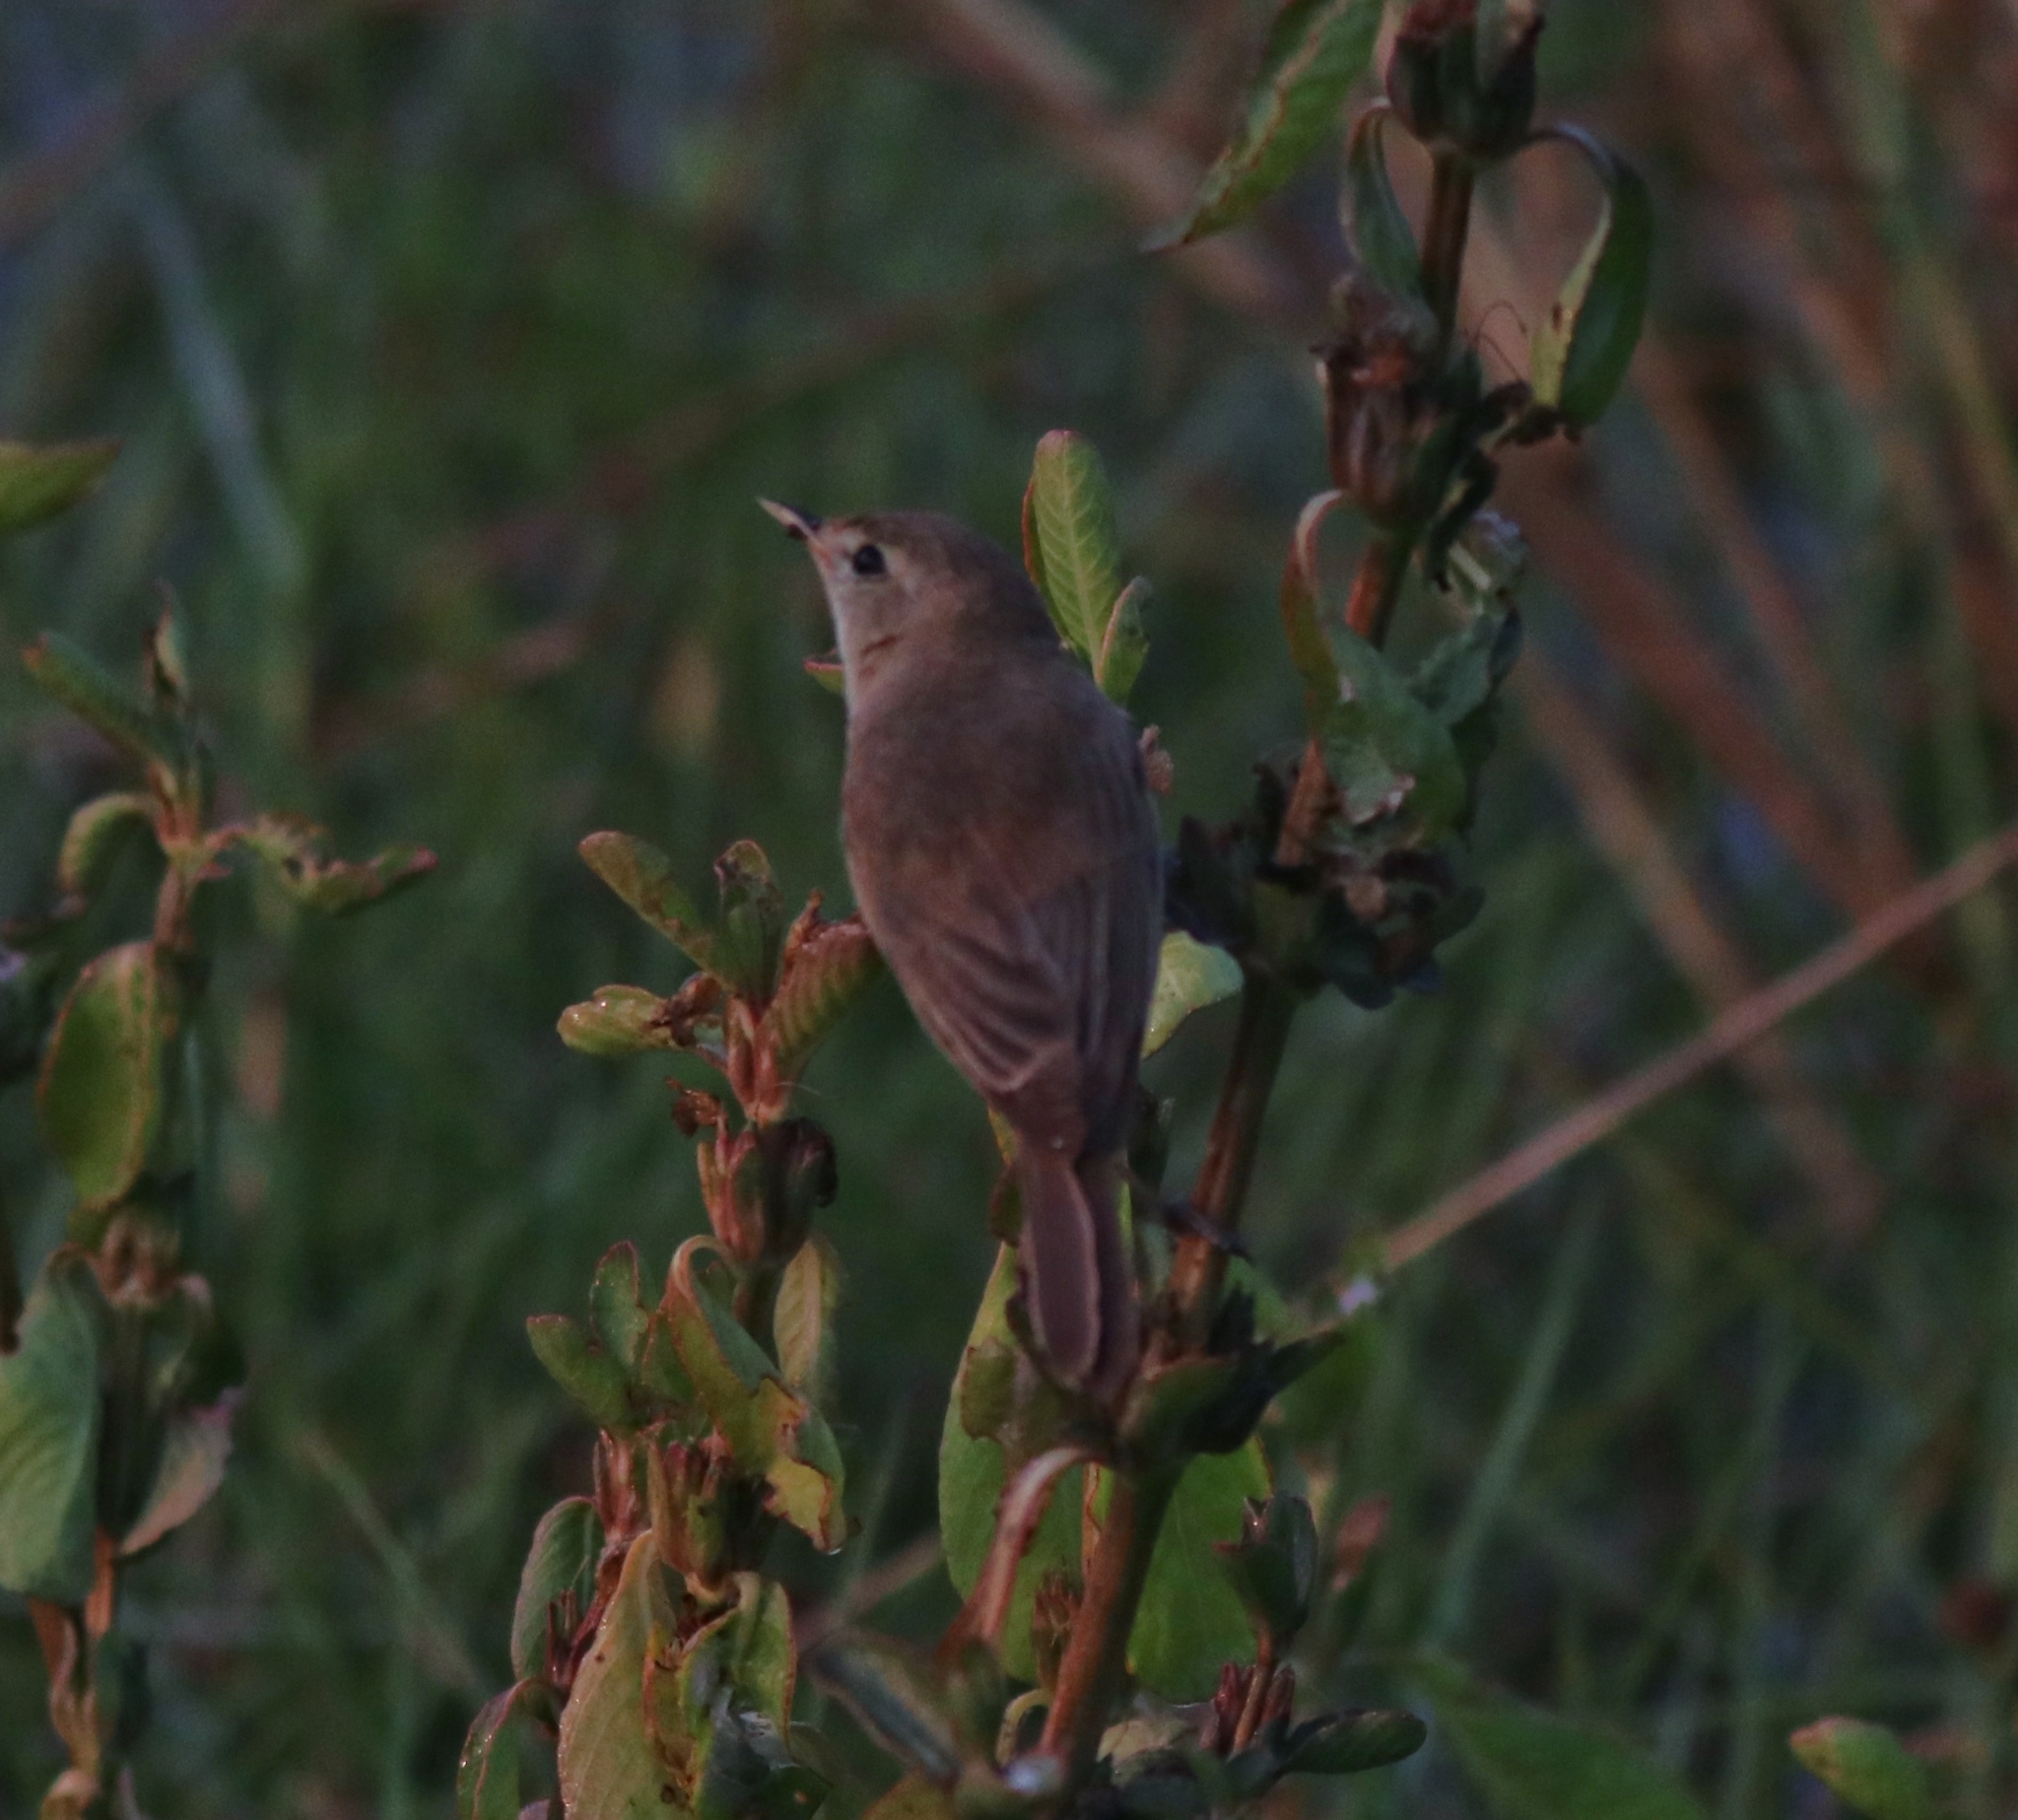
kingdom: Animalia
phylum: Chordata
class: Aves
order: Passeriformes
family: Acrocephalidae
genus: Iduna
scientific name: Iduna caligata
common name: Booted warbler
